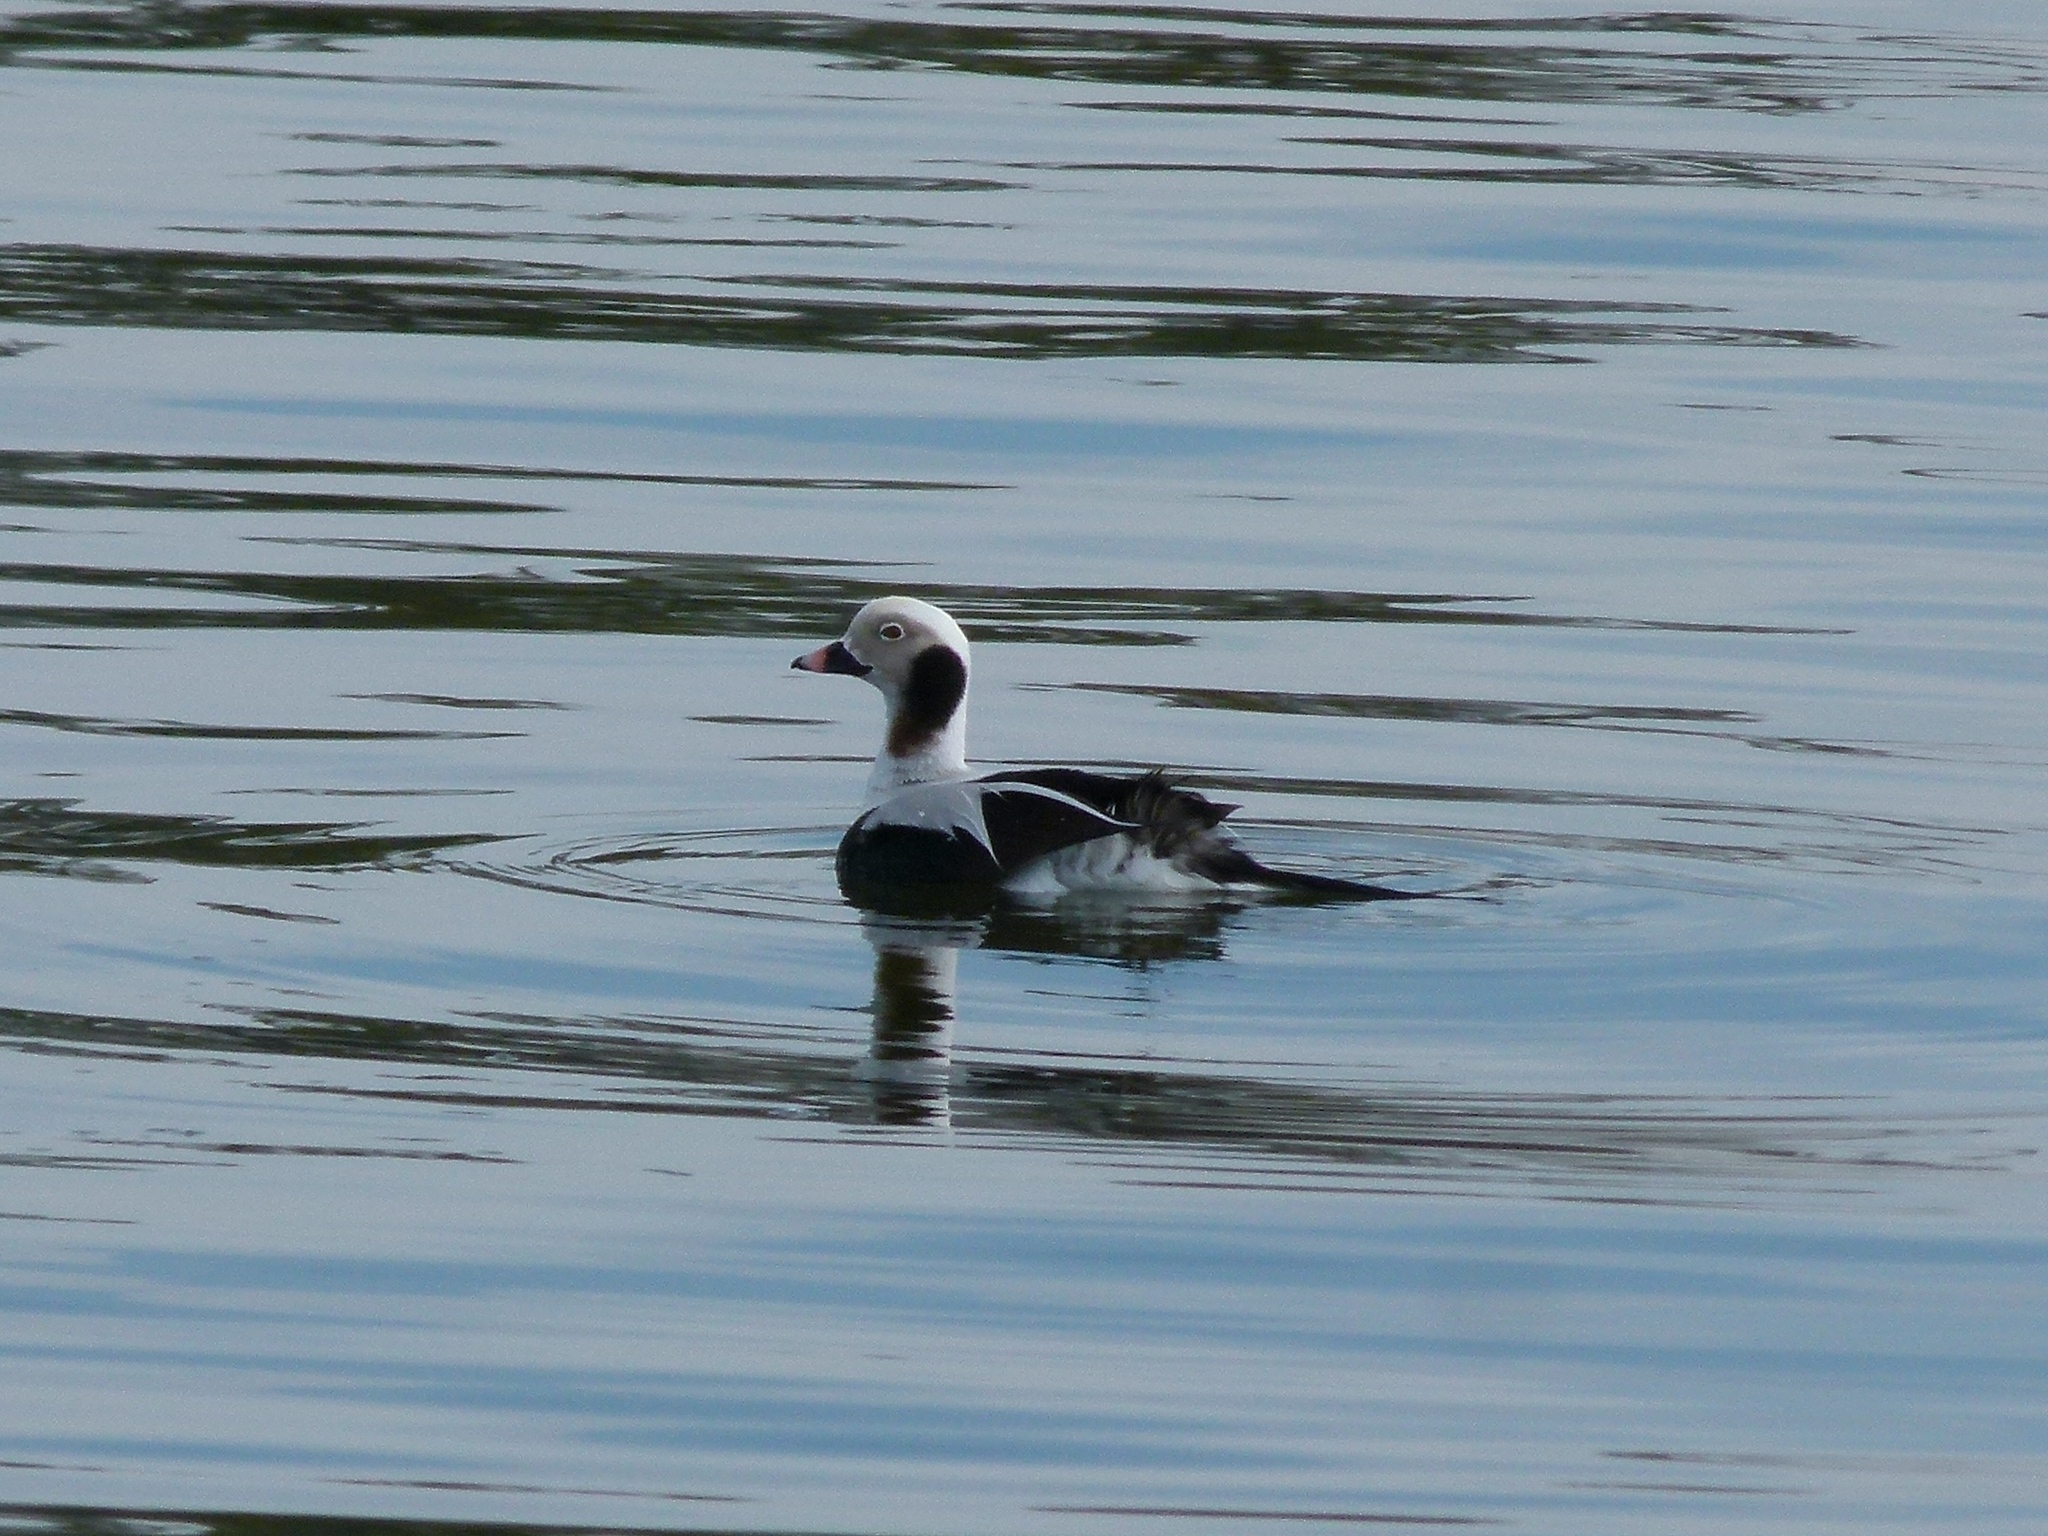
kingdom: Animalia
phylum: Chordata
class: Aves
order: Anseriformes
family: Anatidae
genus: Clangula
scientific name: Clangula hyemalis
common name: Long-tailed duck
